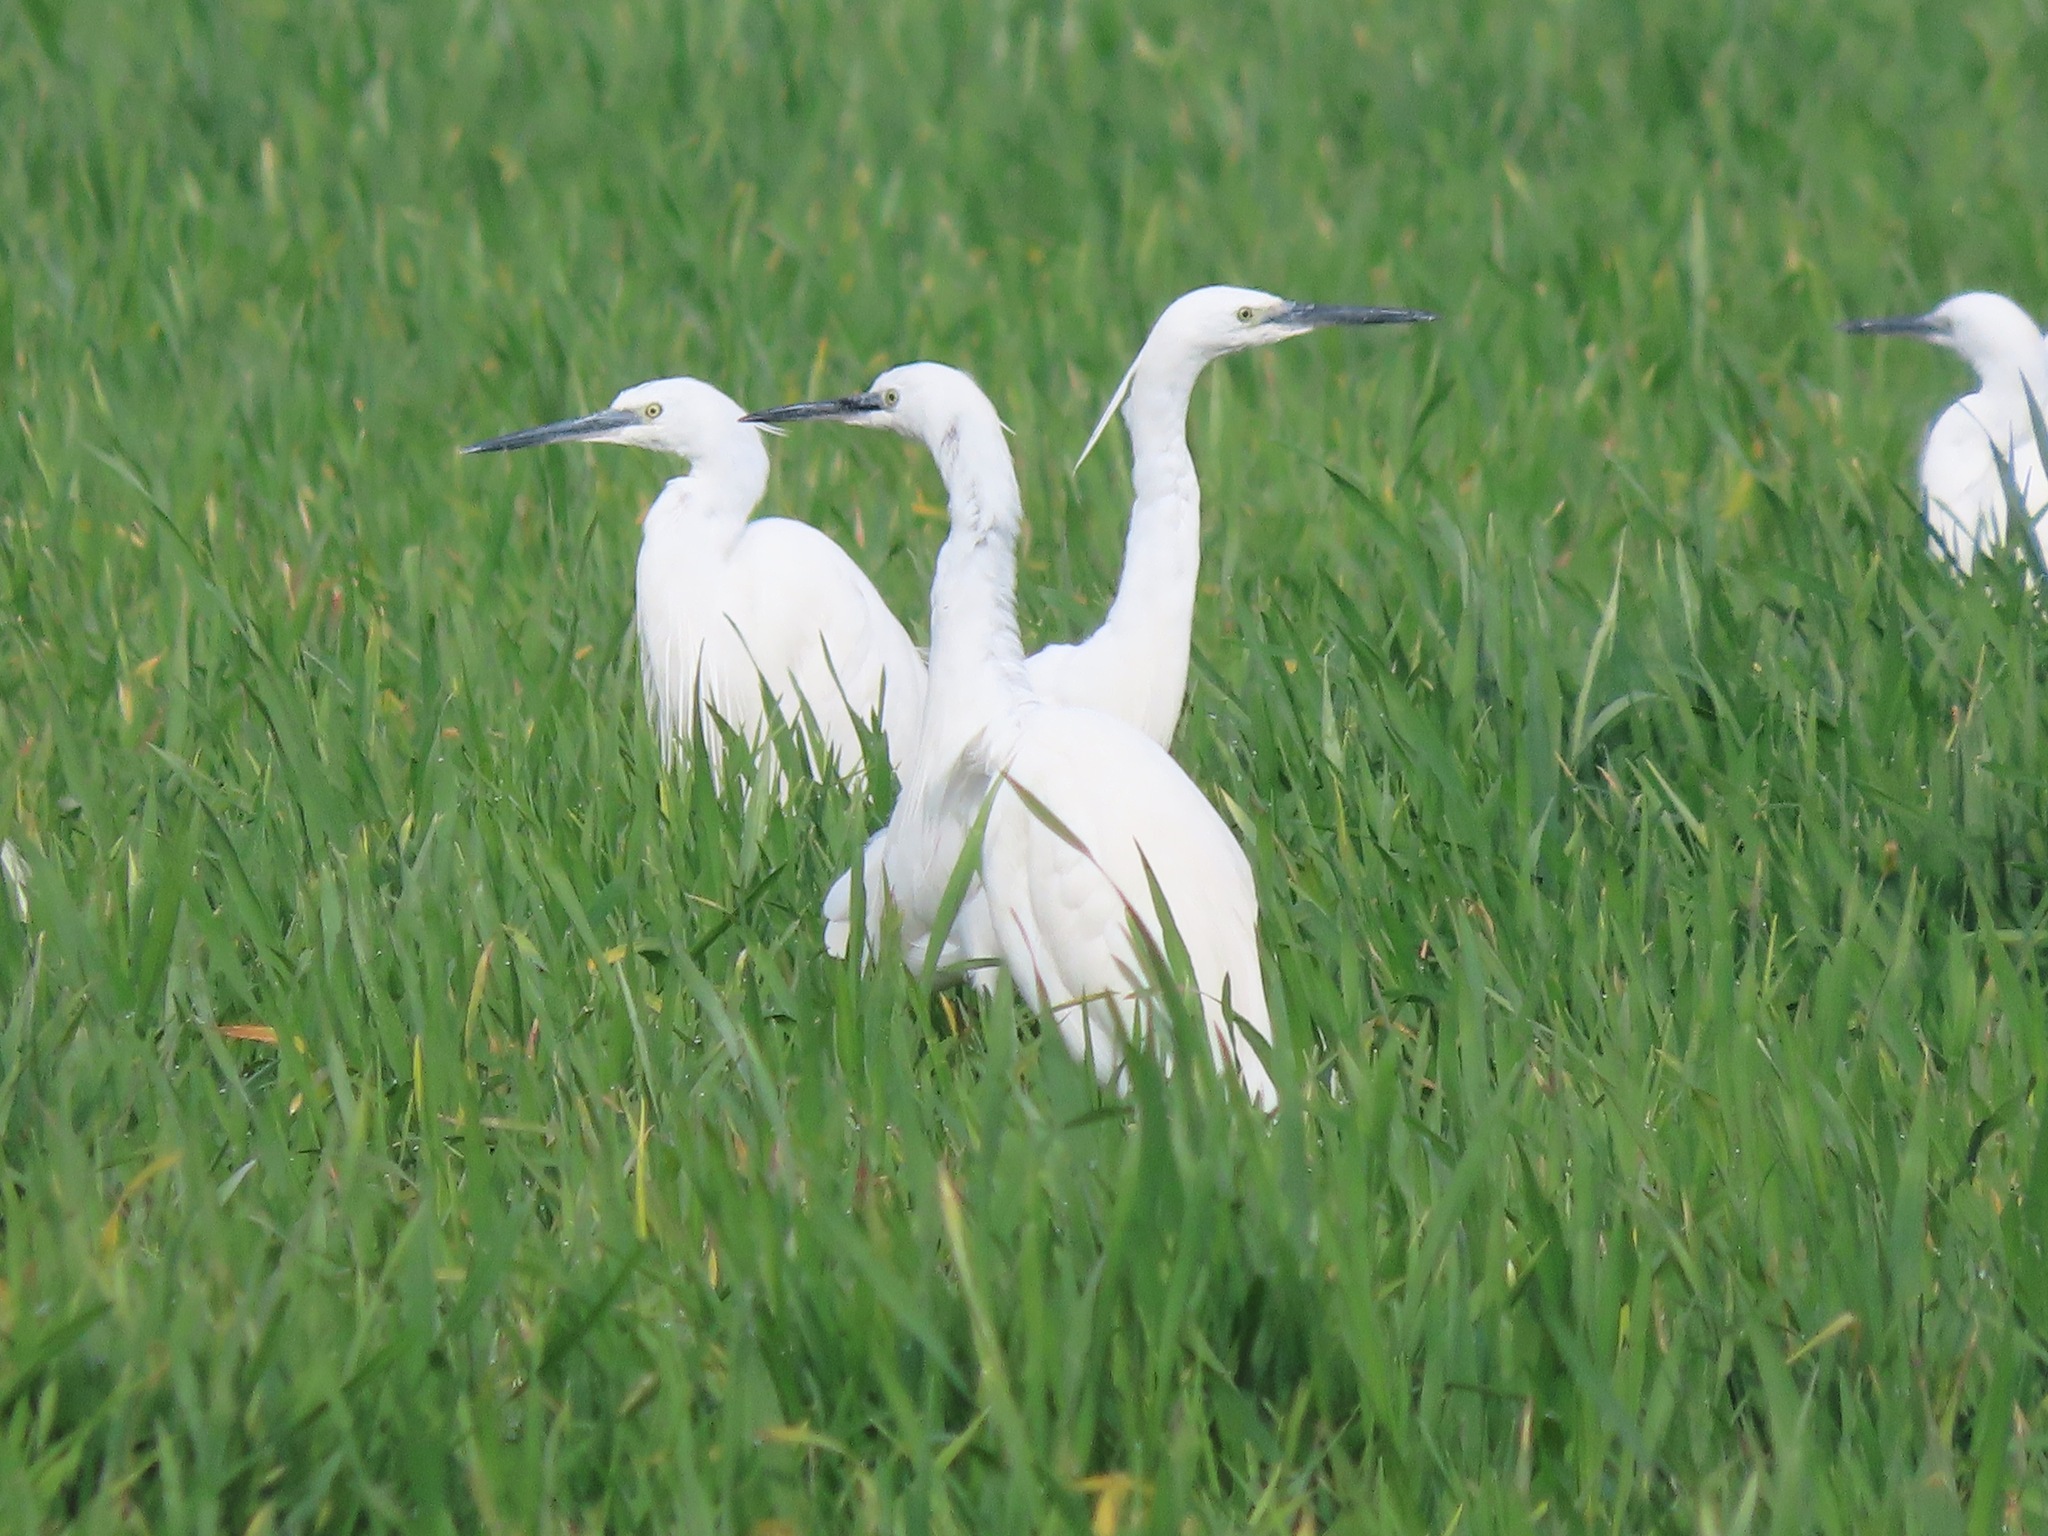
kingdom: Animalia
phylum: Chordata
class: Aves
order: Pelecaniformes
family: Ardeidae
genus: Egretta
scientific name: Egretta garzetta
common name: Little egret
